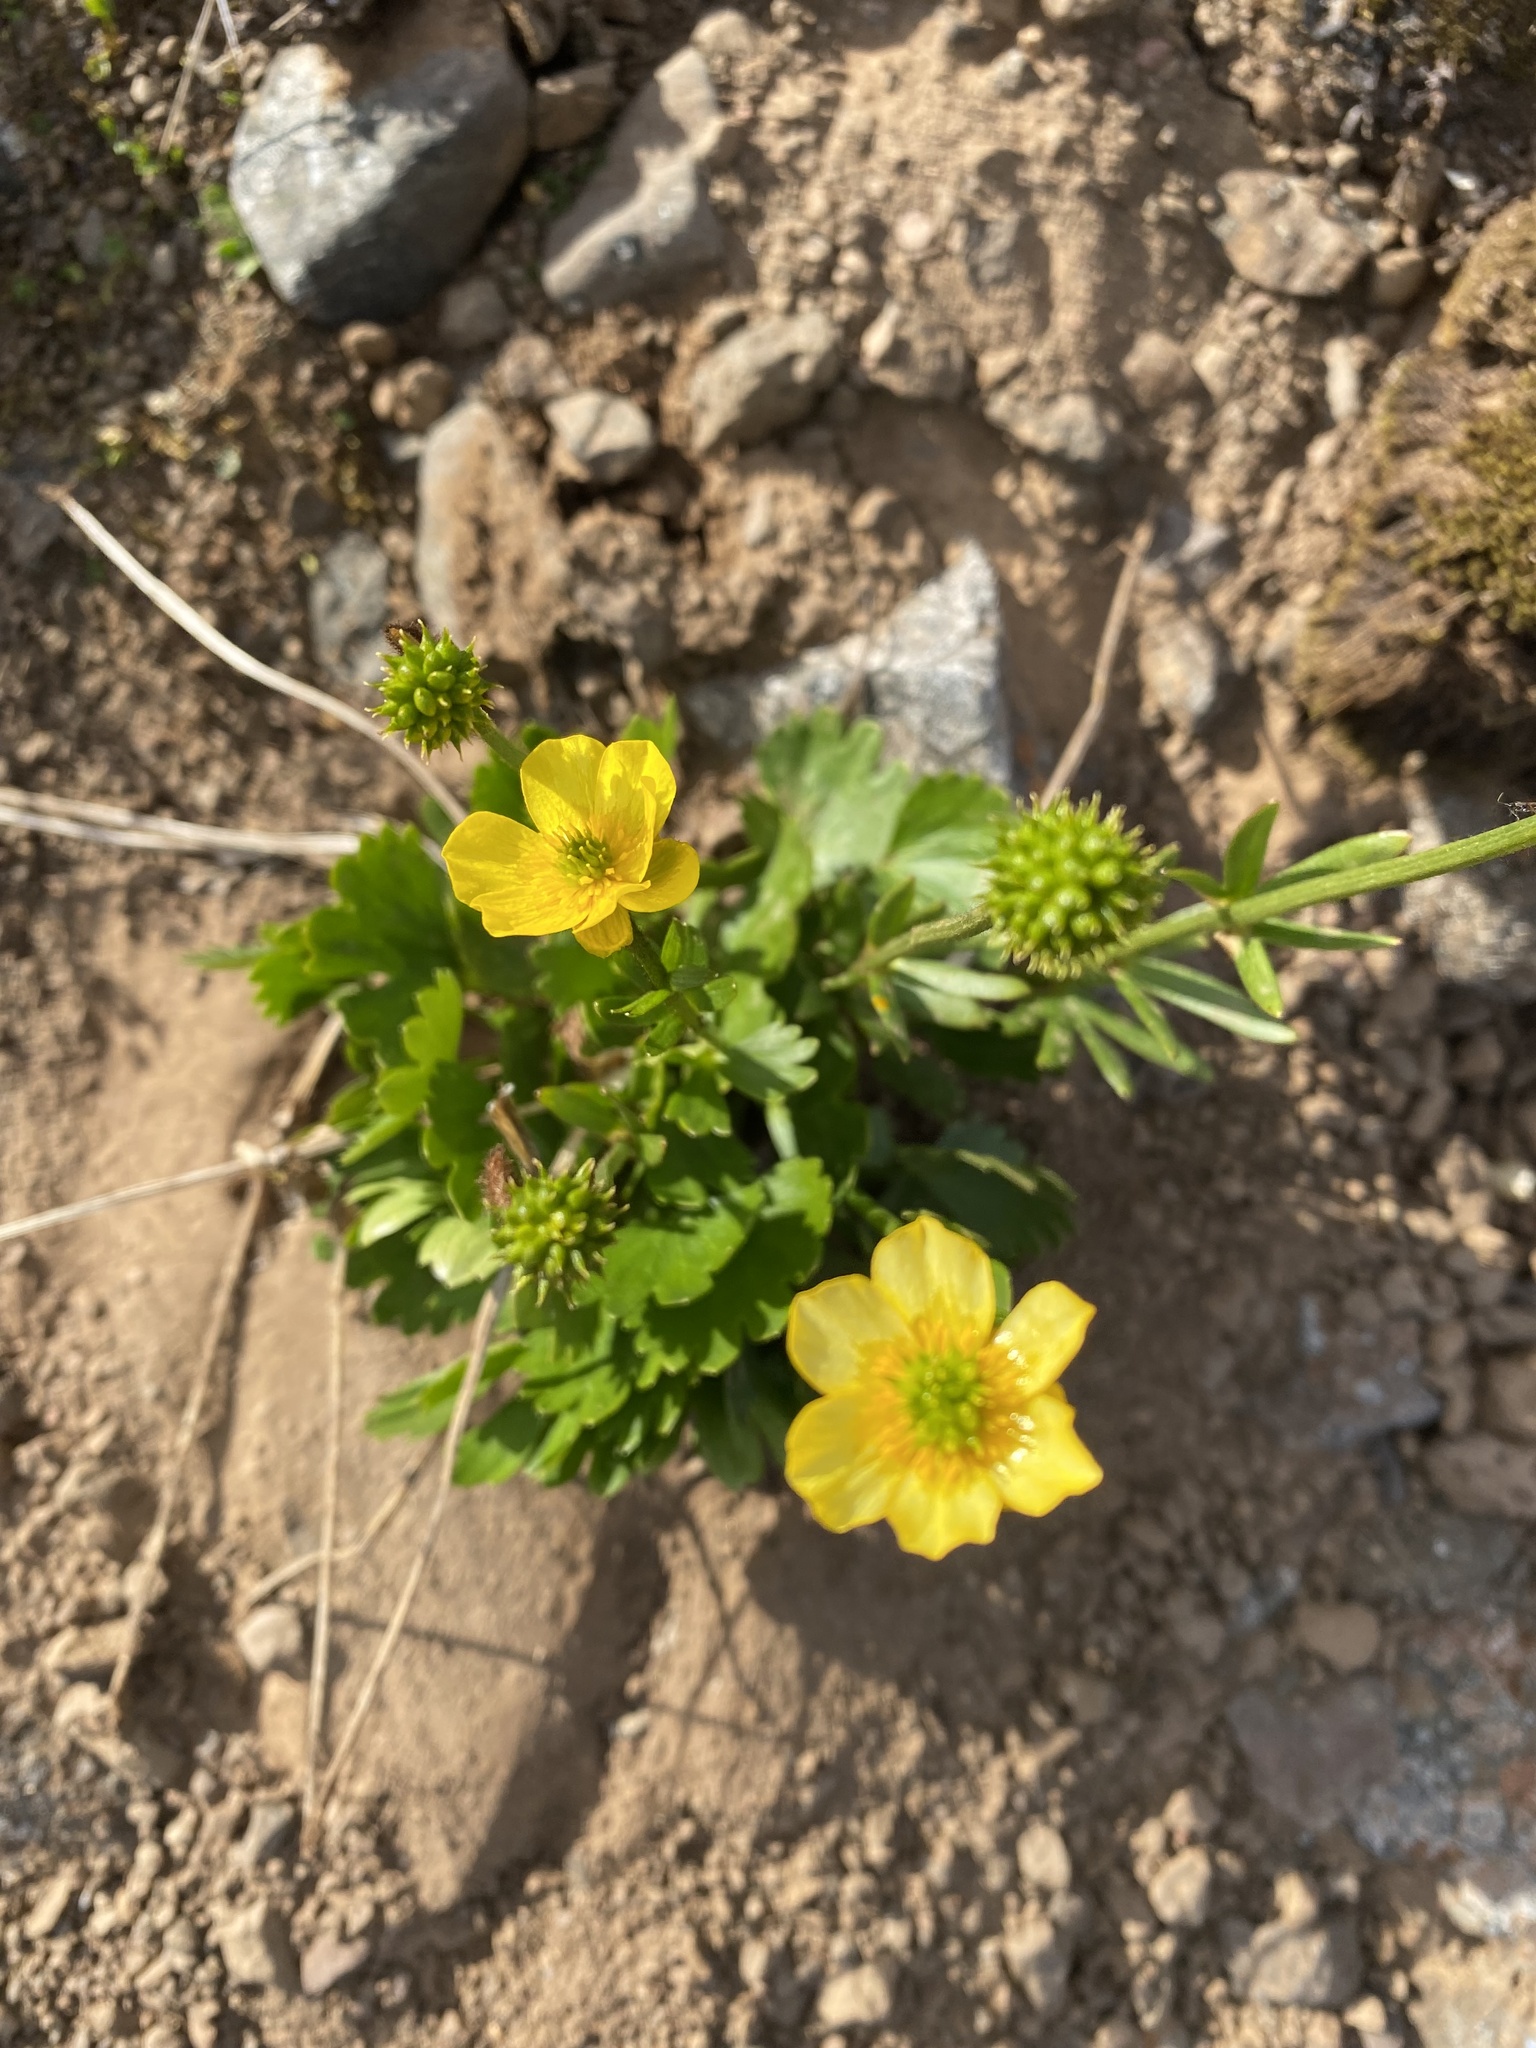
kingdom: Plantae
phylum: Tracheophyta
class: Magnoliopsida
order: Ranunculales
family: Ranunculaceae
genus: Ranunculus
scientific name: Ranunculus sulphureus
